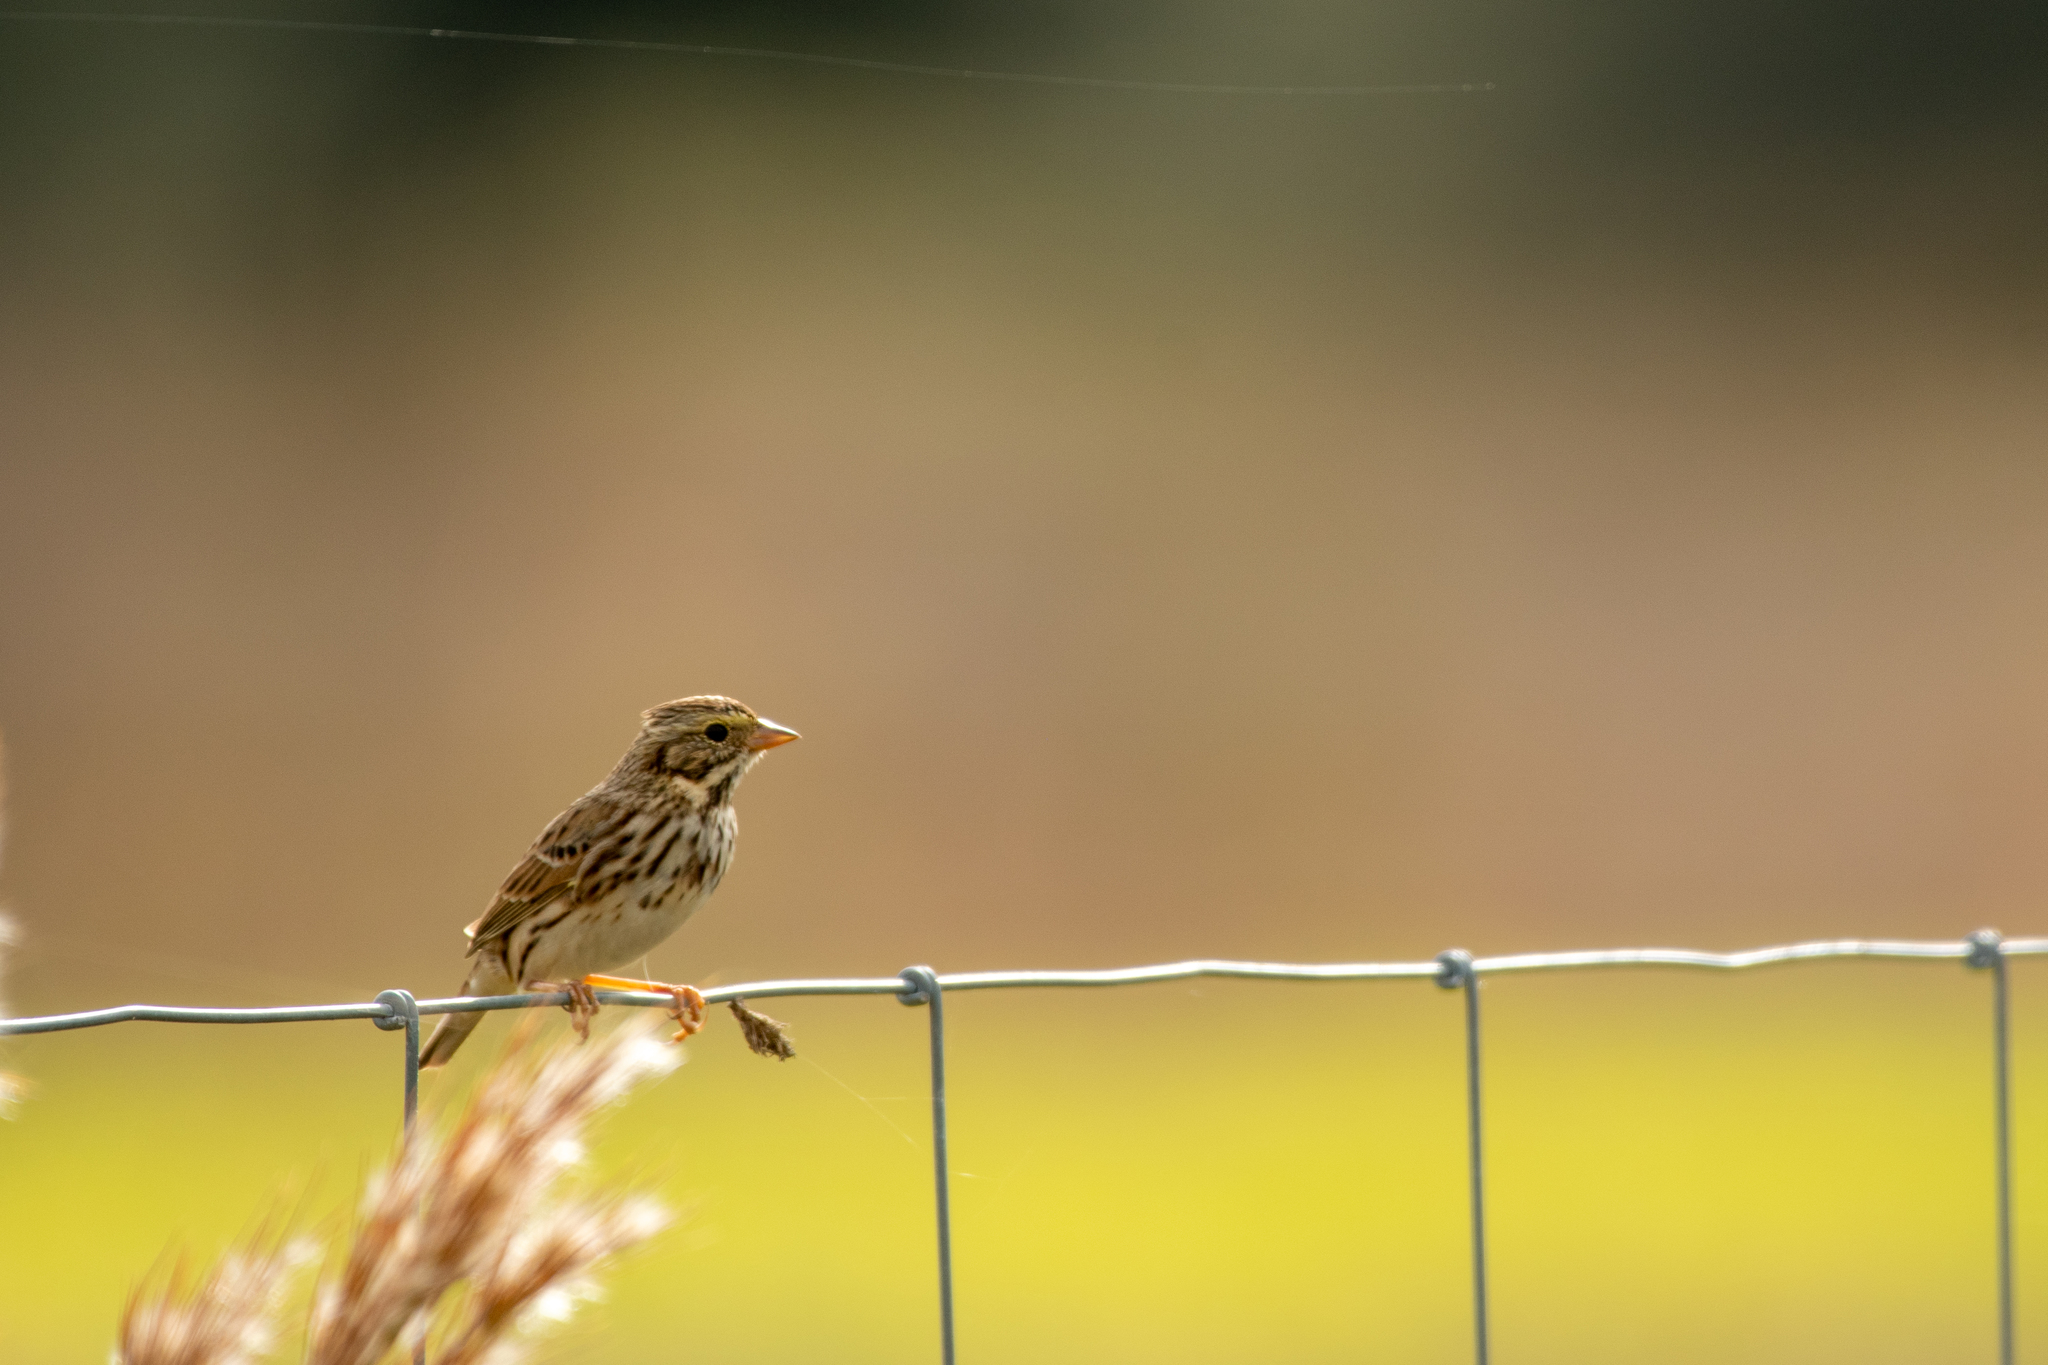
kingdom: Animalia
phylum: Chordata
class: Aves
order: Passeriformes
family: Passerellidae
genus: Passerculus
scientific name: Passerculus sandwichensis
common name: Savannah sparrow
